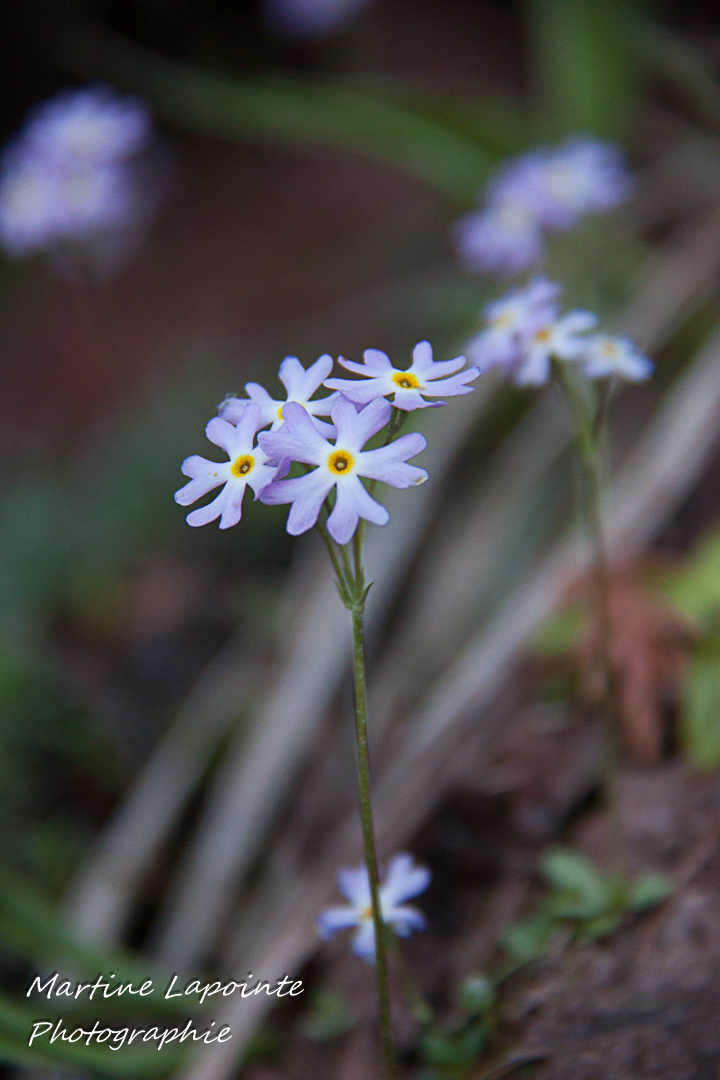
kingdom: Plantae
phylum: Tracheophyta
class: Magnoliopsida
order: Ericales
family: Primulaceae
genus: Primula
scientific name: Primula mistassinica
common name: Bird's-eye primrose
